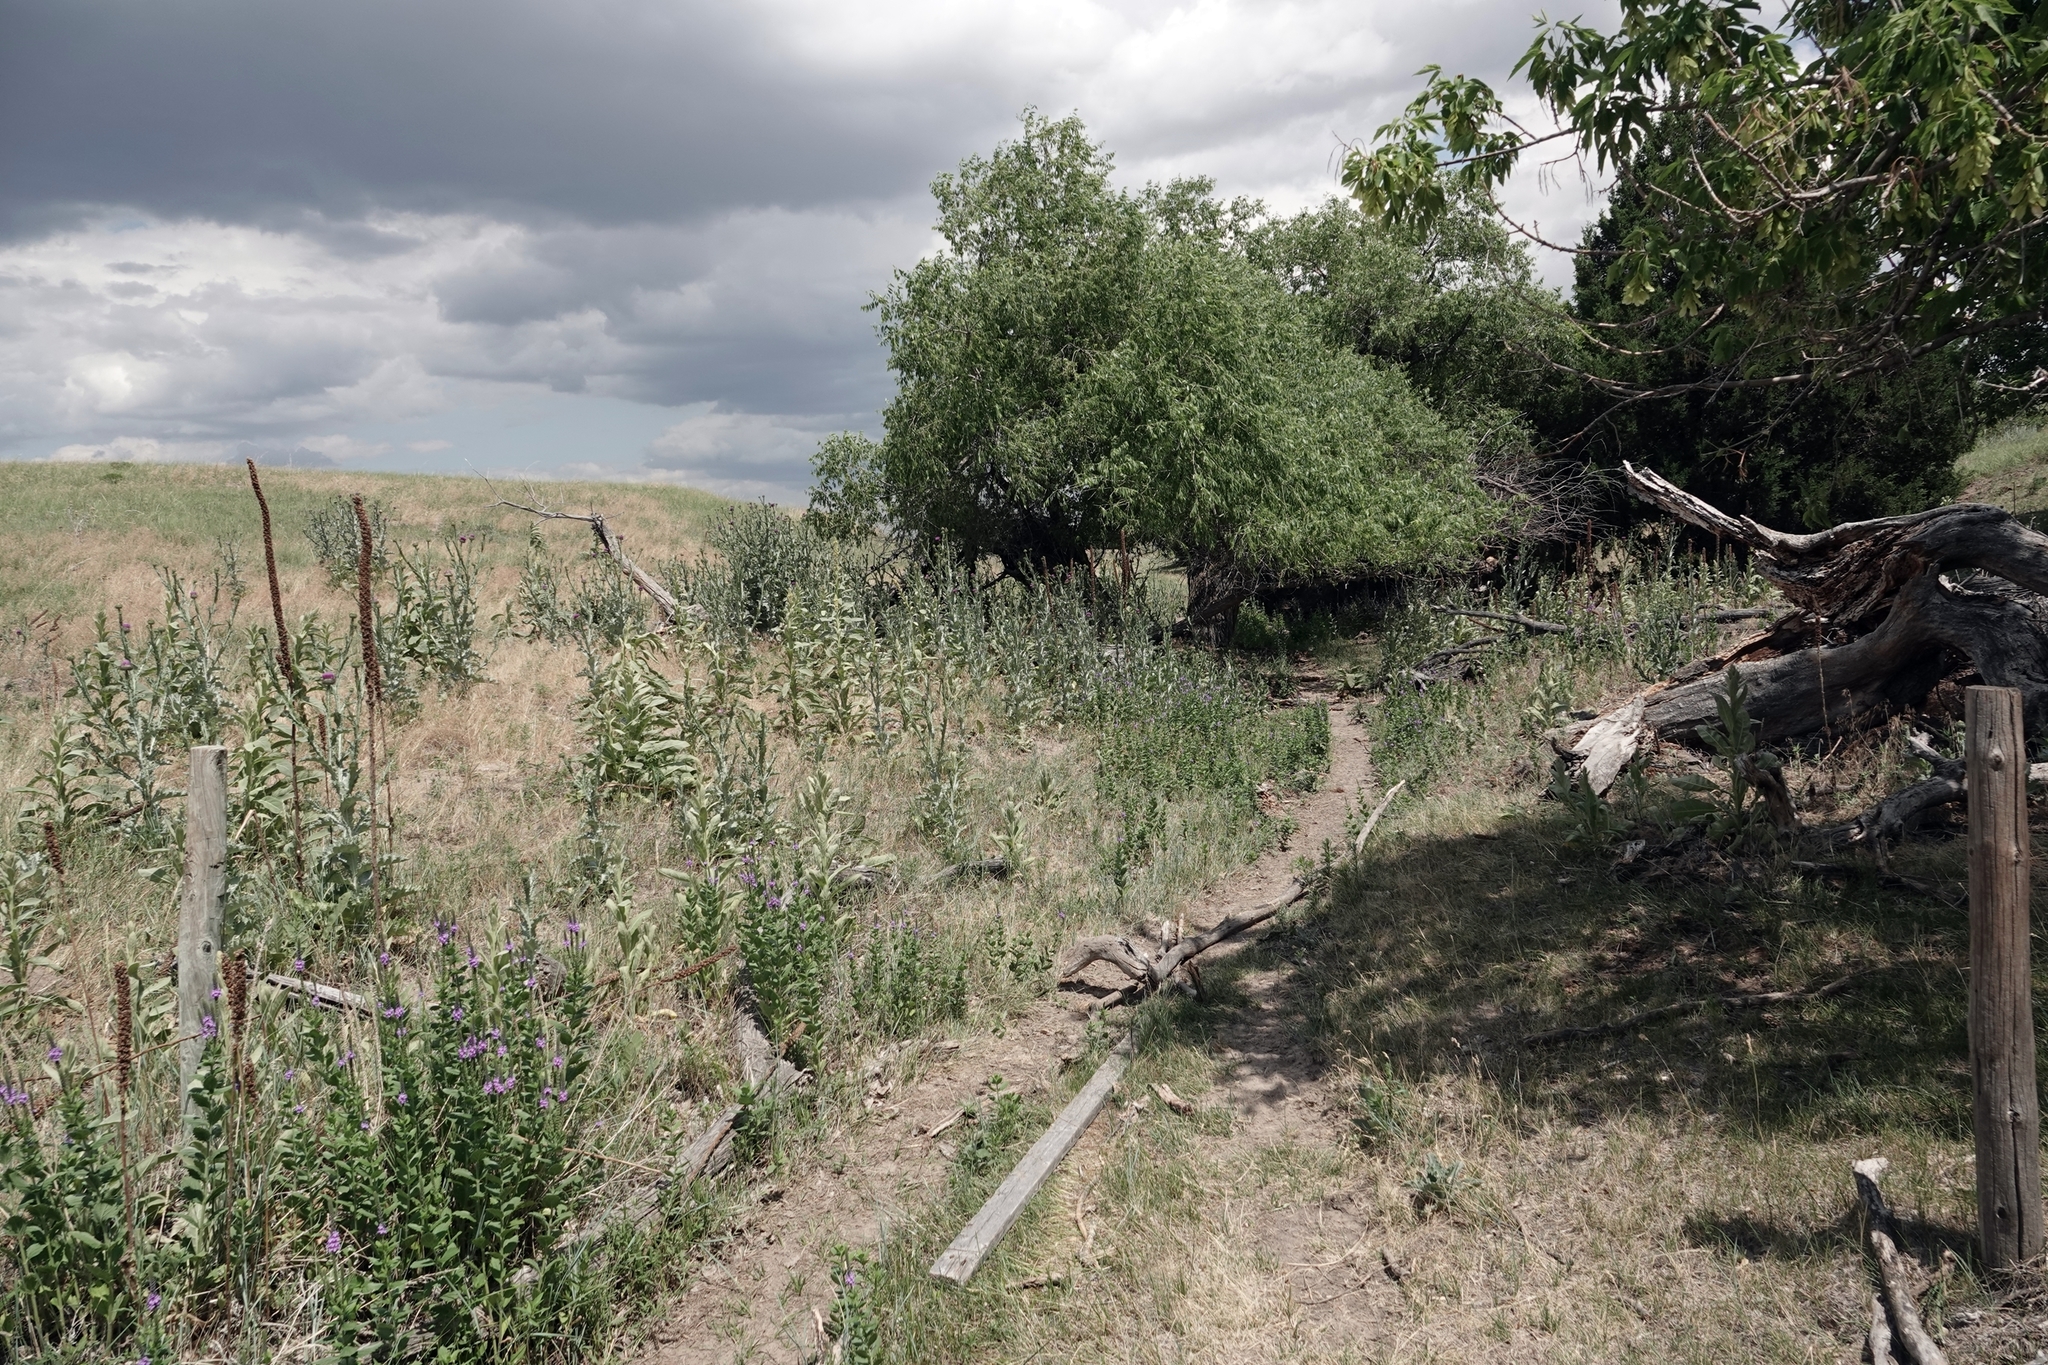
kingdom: Plantae
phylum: Tracheophyta
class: Magnoliopsida
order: Asterales
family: Asteraceae
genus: Onopordum
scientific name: Onopordum acanthium
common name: Scotch thistle
